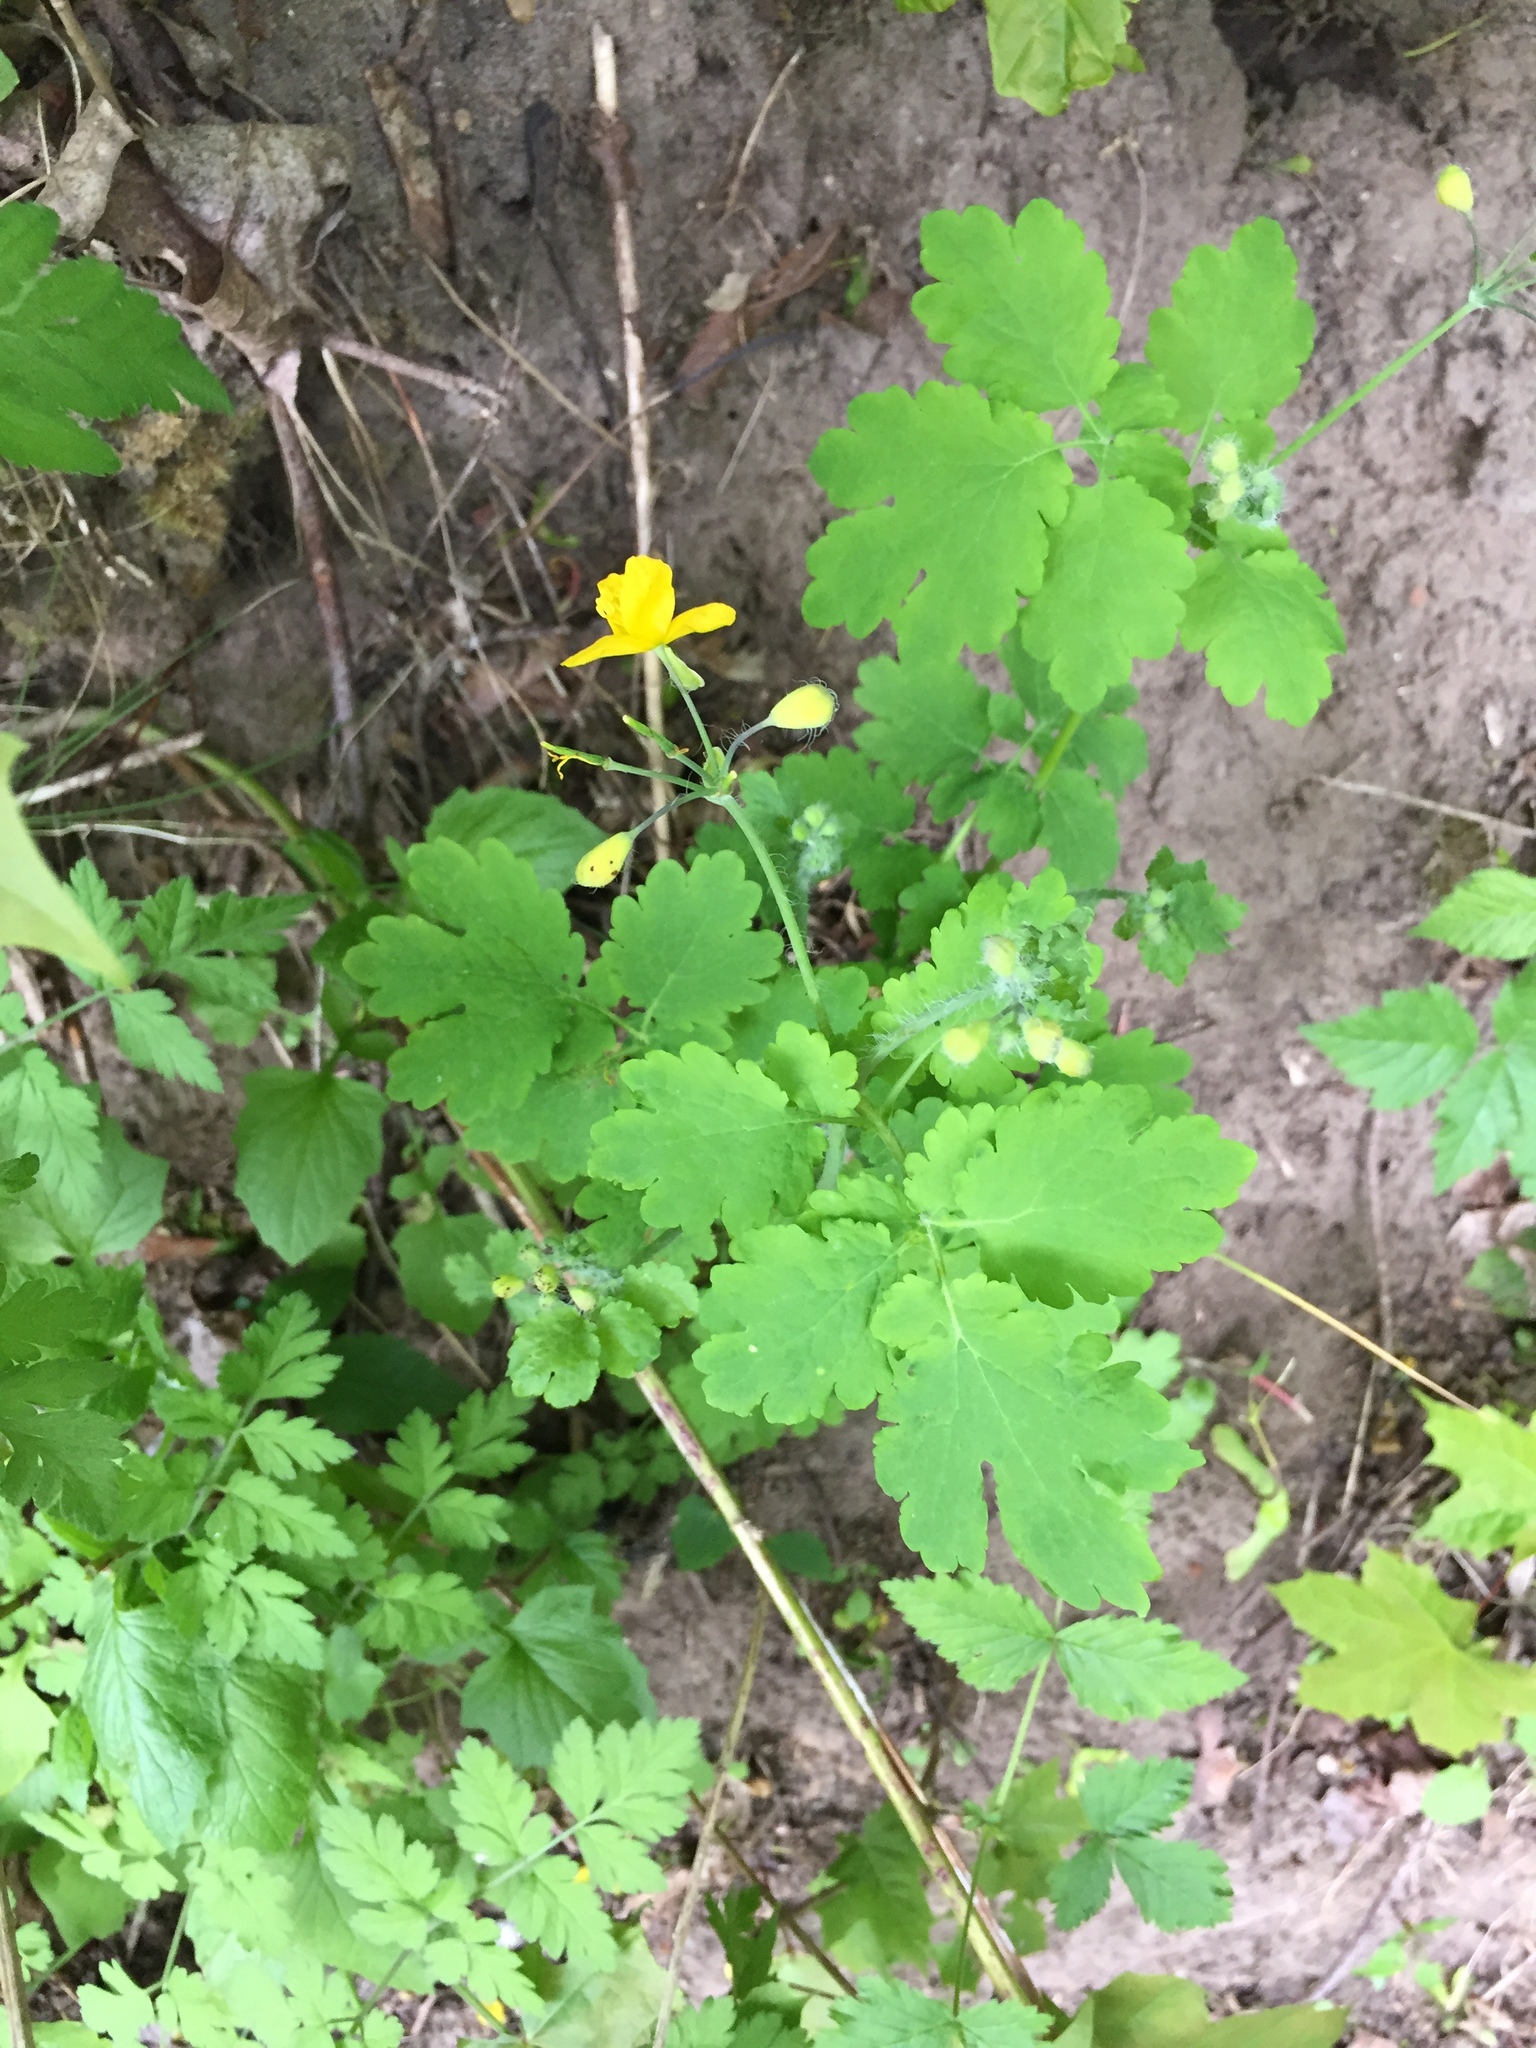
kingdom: Plantae
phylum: Tracheophyta
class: Magnoliopsida
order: Ranunculales
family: Papaveraceae
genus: Chelidonium
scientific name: Chelidonium majus
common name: Greater celandine
